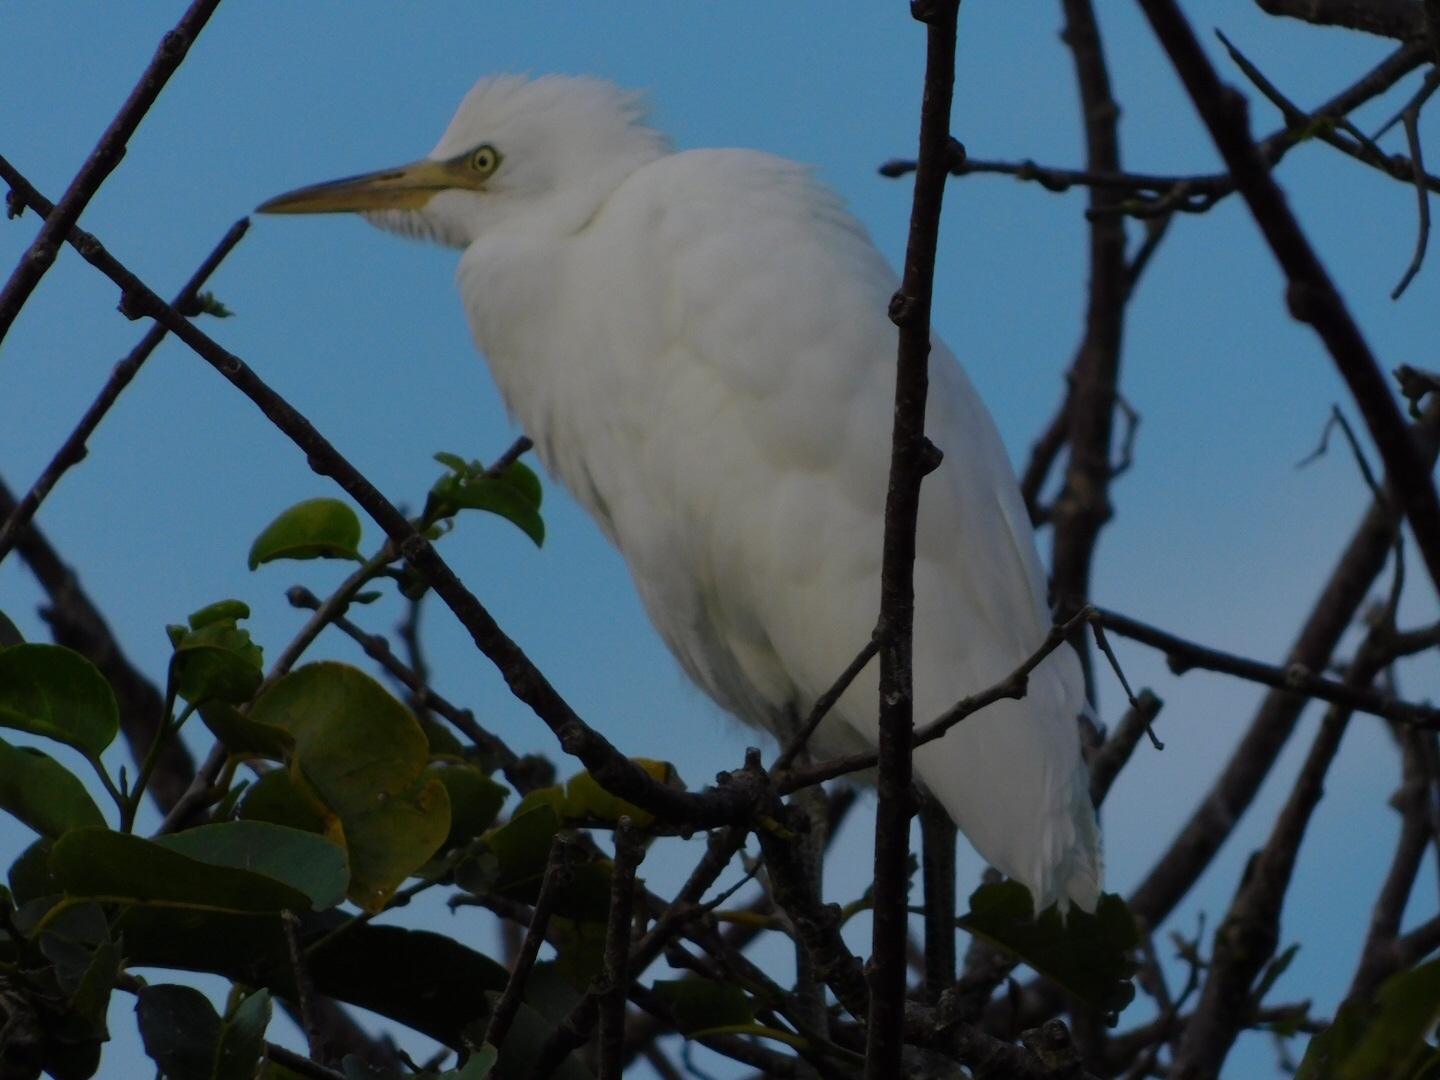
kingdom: Animalia
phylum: Chordata
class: Aves
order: Pelecaniformes
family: Ardeidae
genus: Bubulcus
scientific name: Bubulcus ibis
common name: Cattle egret
